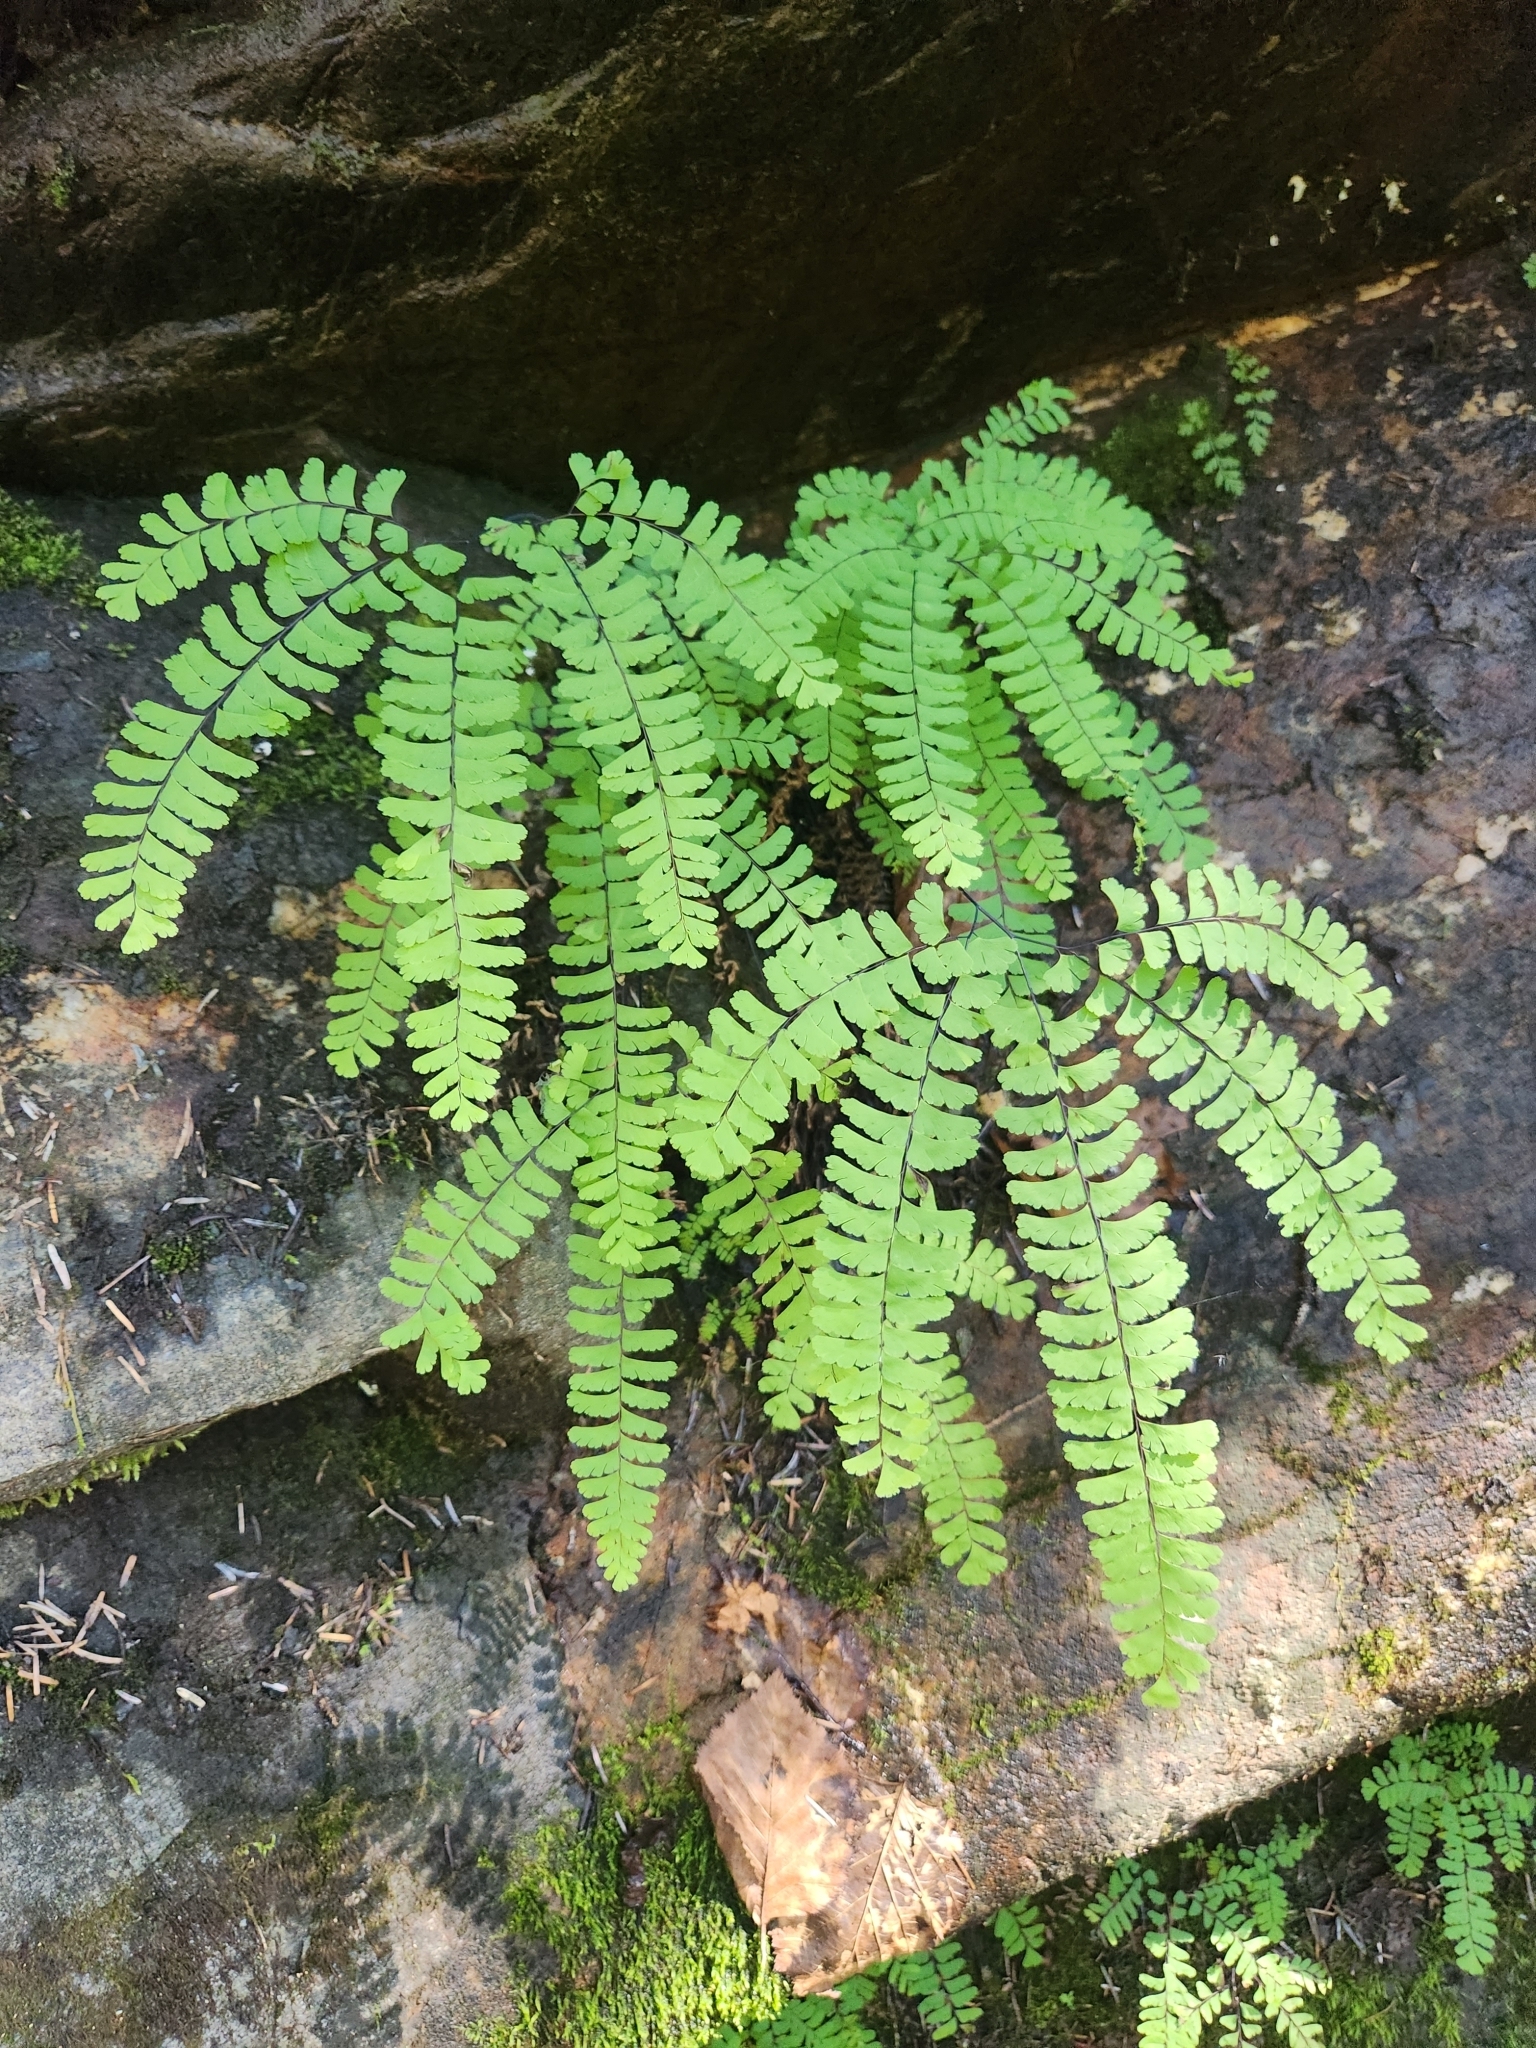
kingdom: Plantae
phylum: Tracheophyta
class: Polypodiopsida
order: Polypodiales
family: Pteridaceae
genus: Adiantum
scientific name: Adiantum aleuticum
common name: Aleutian maidenhair fern
